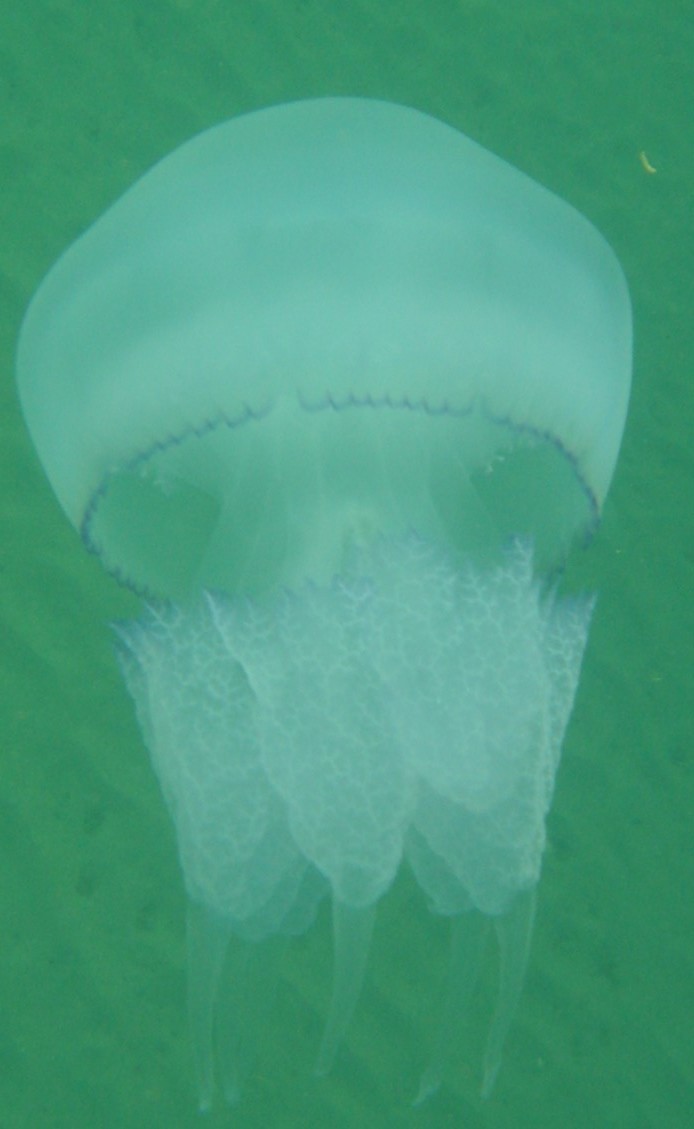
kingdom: Animalia
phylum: Cnidaria
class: Scyphozoa
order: Rhizostomeae
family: Rhizostomatidae
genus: Rhizostoma
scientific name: Rhizostoma pulmo
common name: Barrel jellyfish
